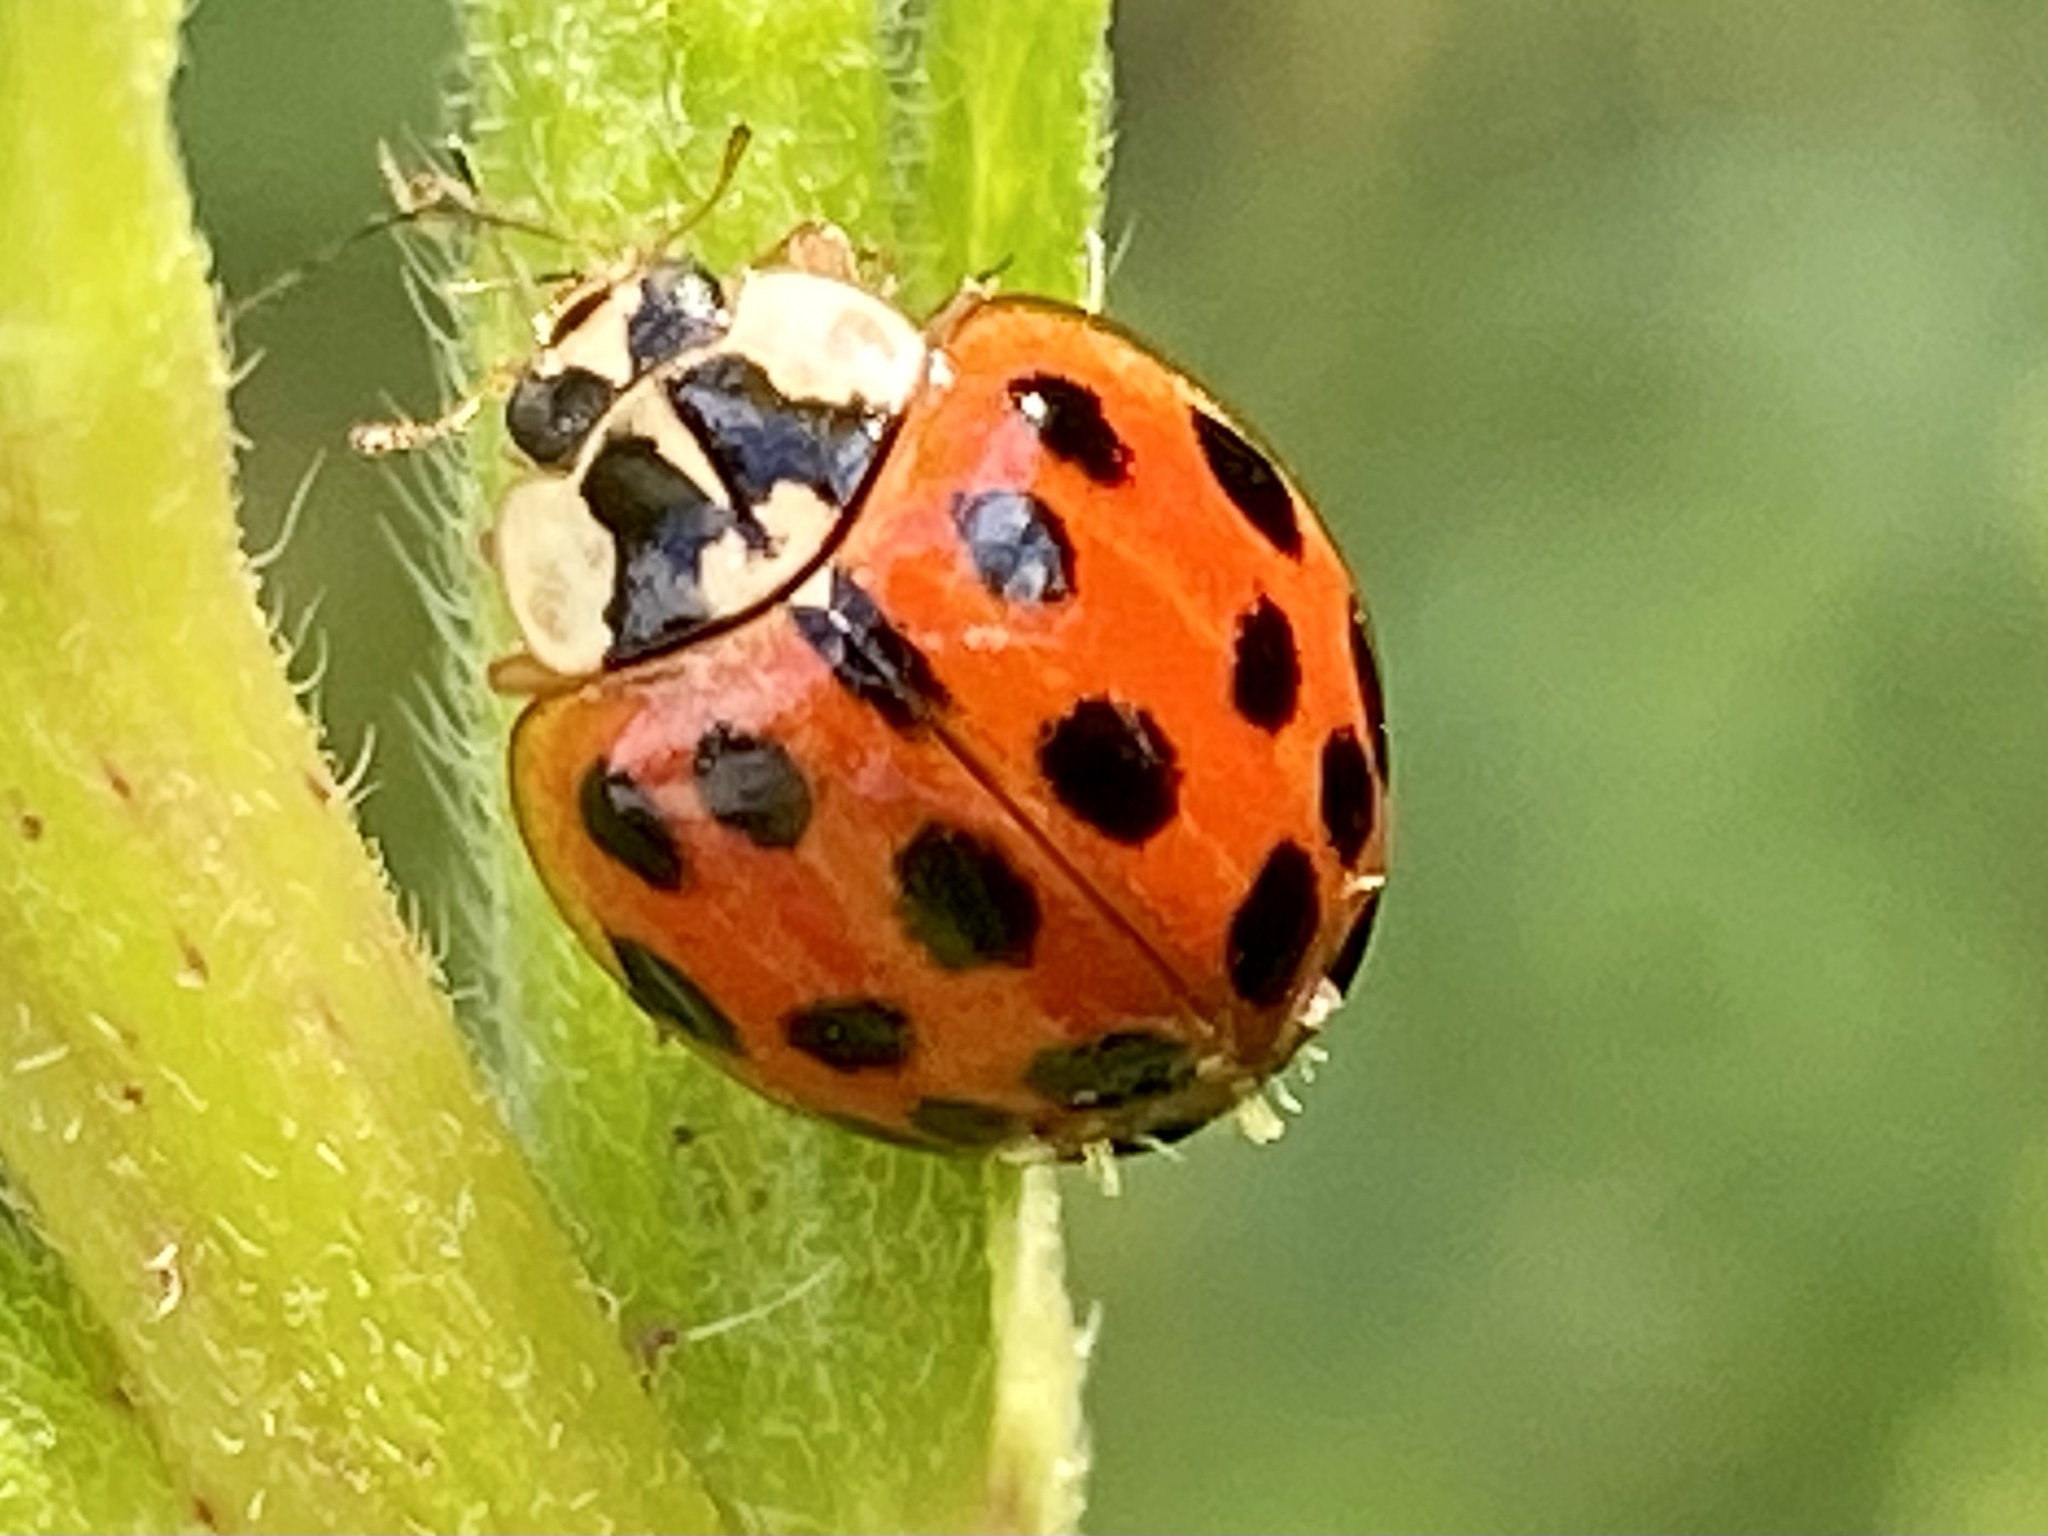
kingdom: Animalia
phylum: Arthropoda
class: Insecta
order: Coleoptera
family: Coccinellidae
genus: Harmonia
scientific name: Harmonia axyridis
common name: Harlequin ladybird
